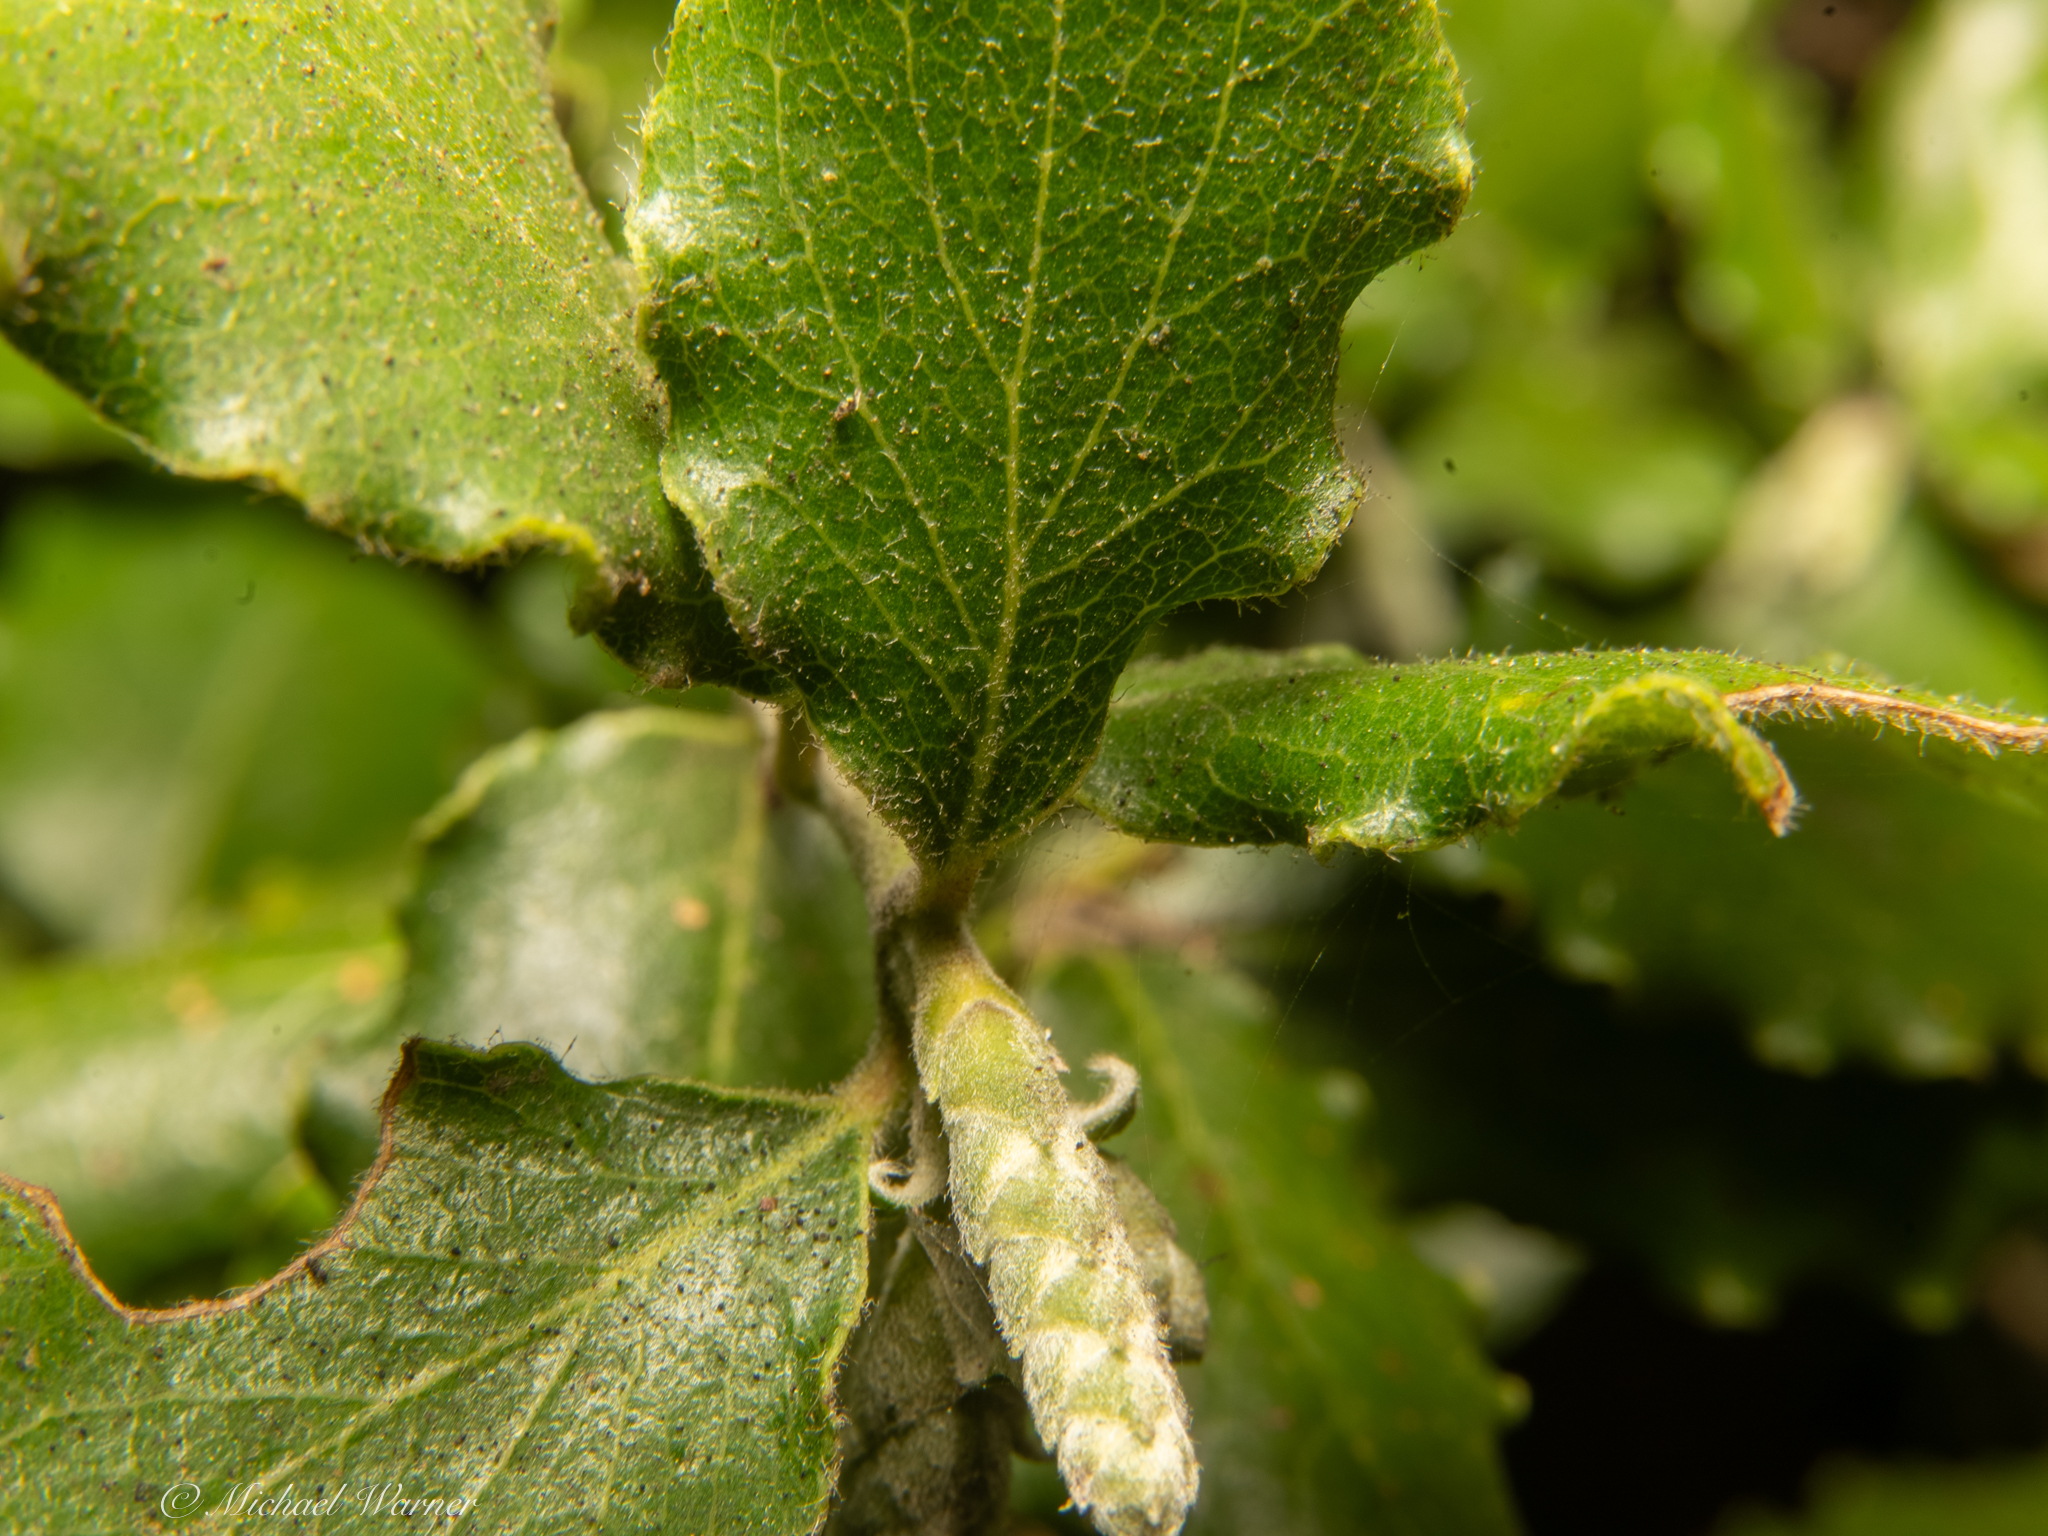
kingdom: Plantae
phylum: Tracheophyta
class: Magnoliopsida
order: Garryales
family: Garryaceae
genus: Garrya
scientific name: Garrya elliptica
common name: Silk-tassel
